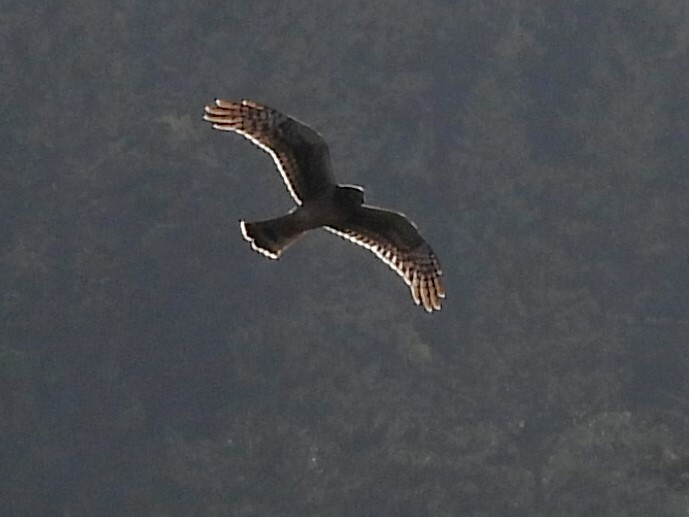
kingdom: Animalia
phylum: Chordata
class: Aves
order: Accipitriformes
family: Accipitridae
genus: Circus
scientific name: Circus cyaneus
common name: Hen harrier
